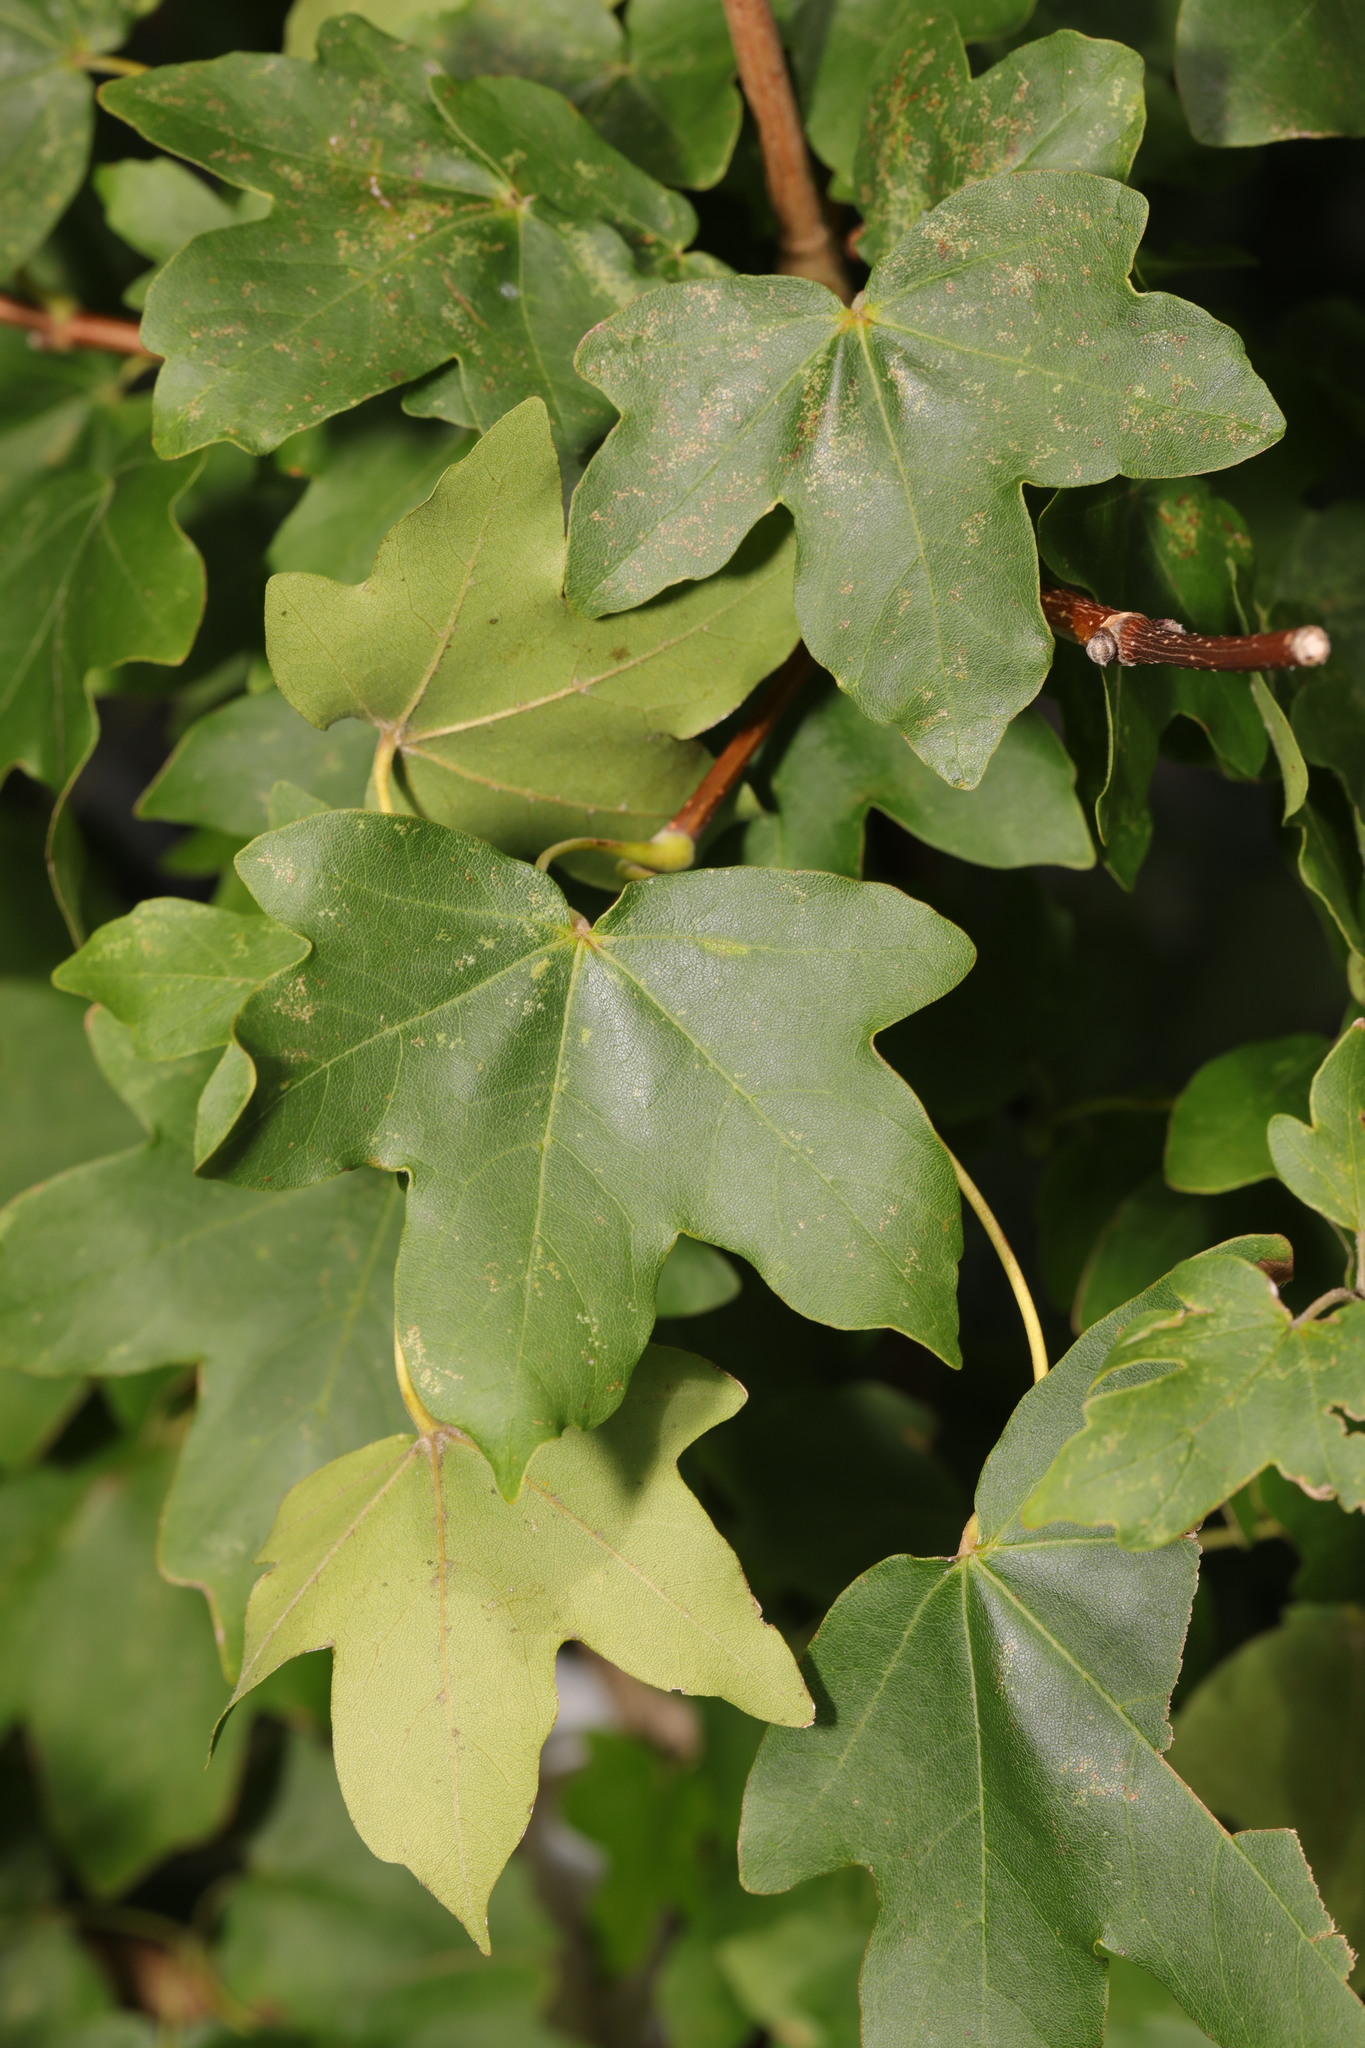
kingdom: Plantae
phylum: Tracheophyta
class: Magnoliopsida
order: Sapindales
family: Sapindaceae
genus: Acer
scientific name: Acer campestre
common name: Field maple
